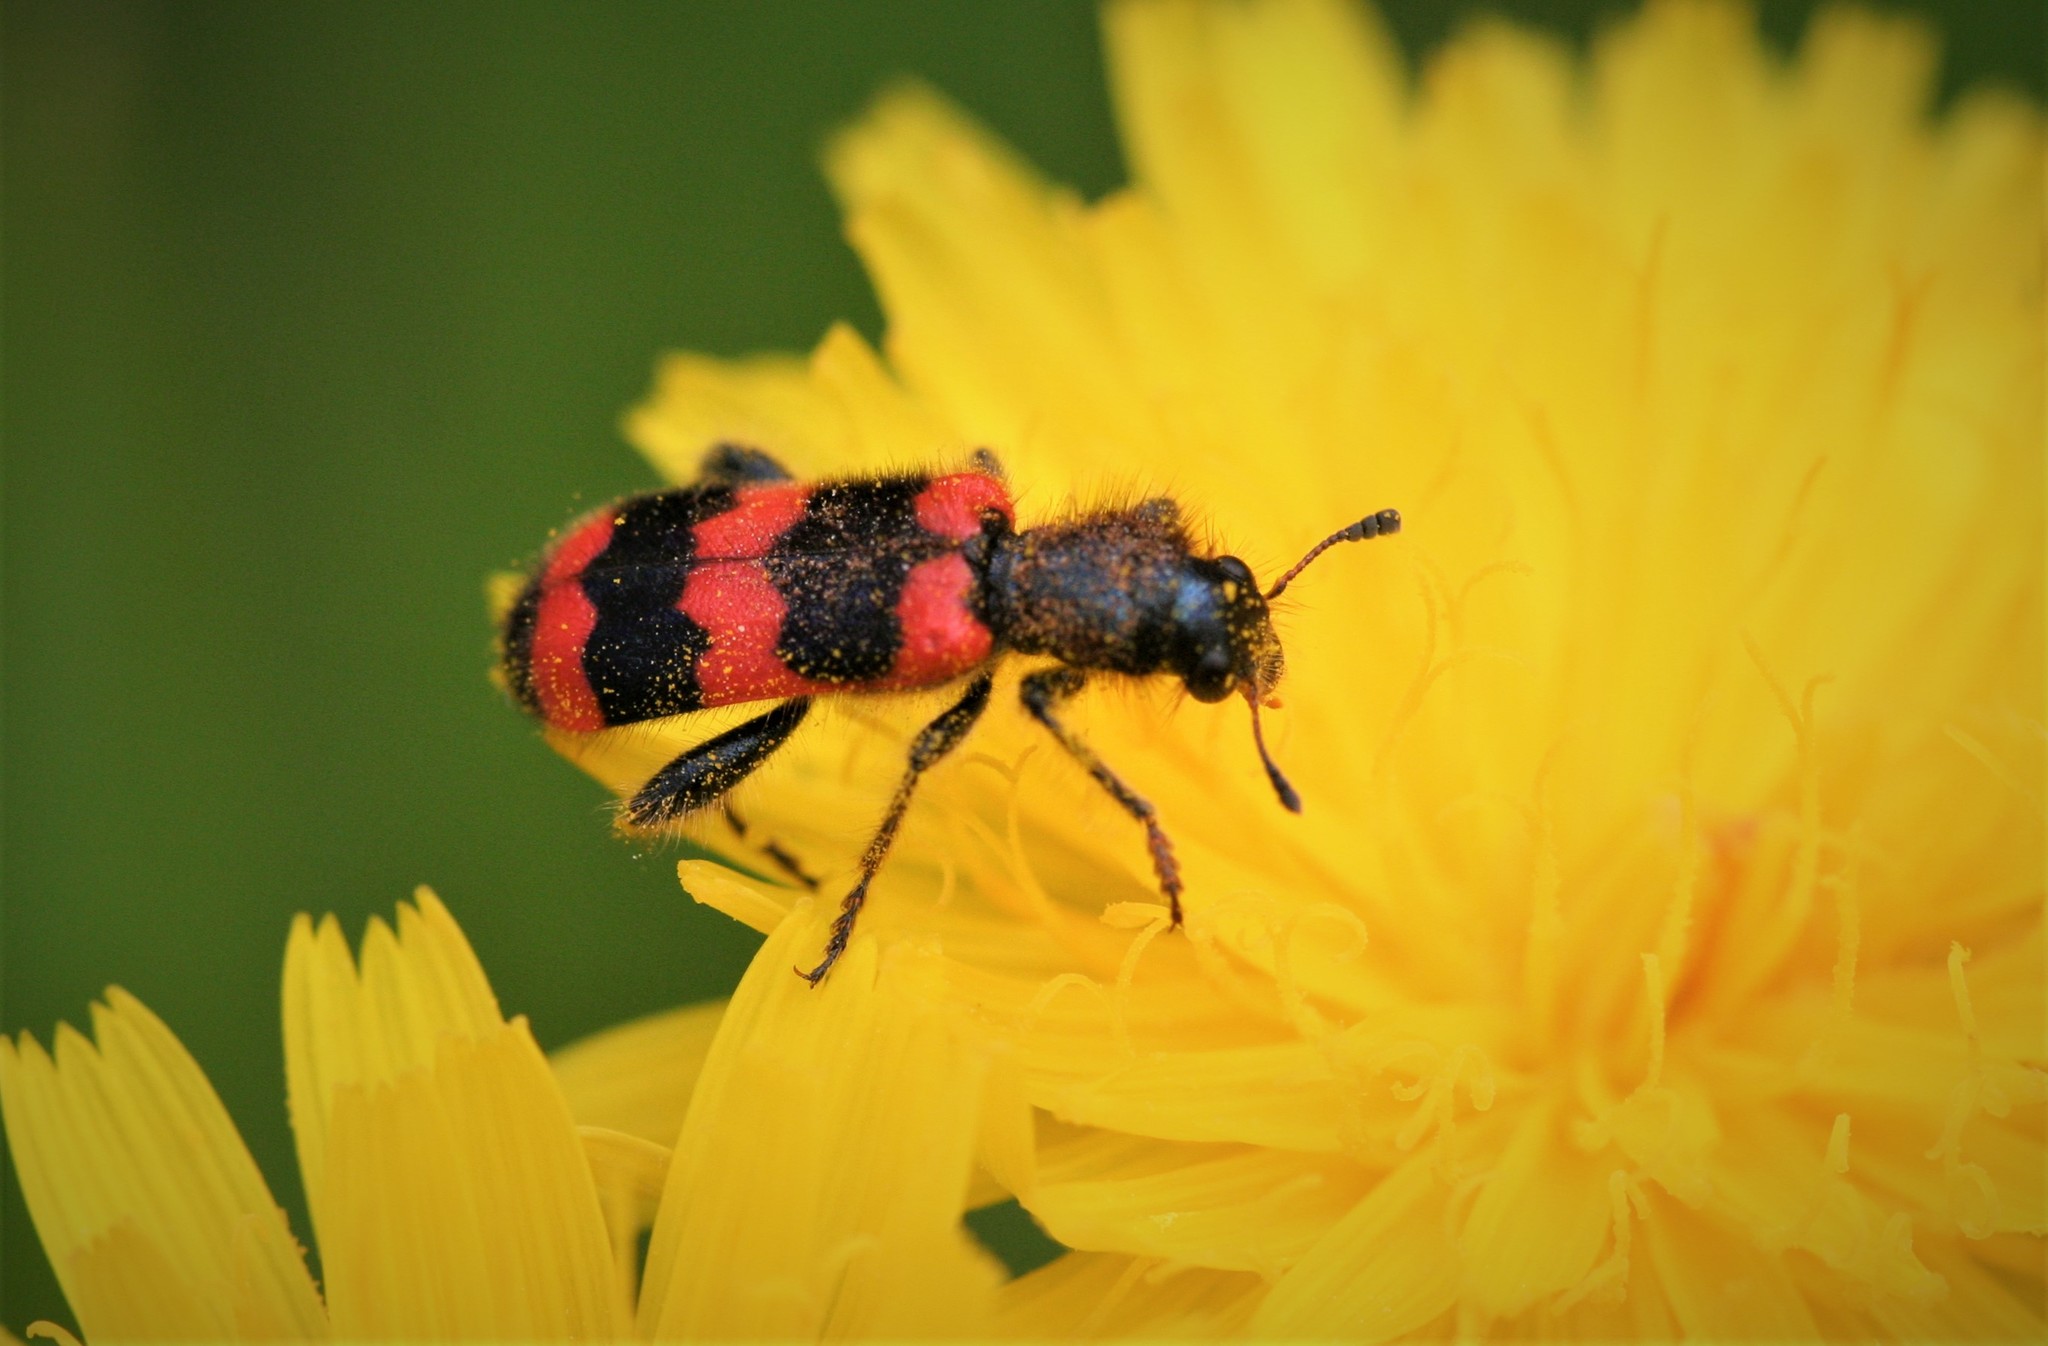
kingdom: Animalia
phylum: Arthropoda
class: Insecta
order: Coleoptera
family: Cleridae
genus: Trichodes
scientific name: Trichodes apiarius
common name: Bee-eating beetle
